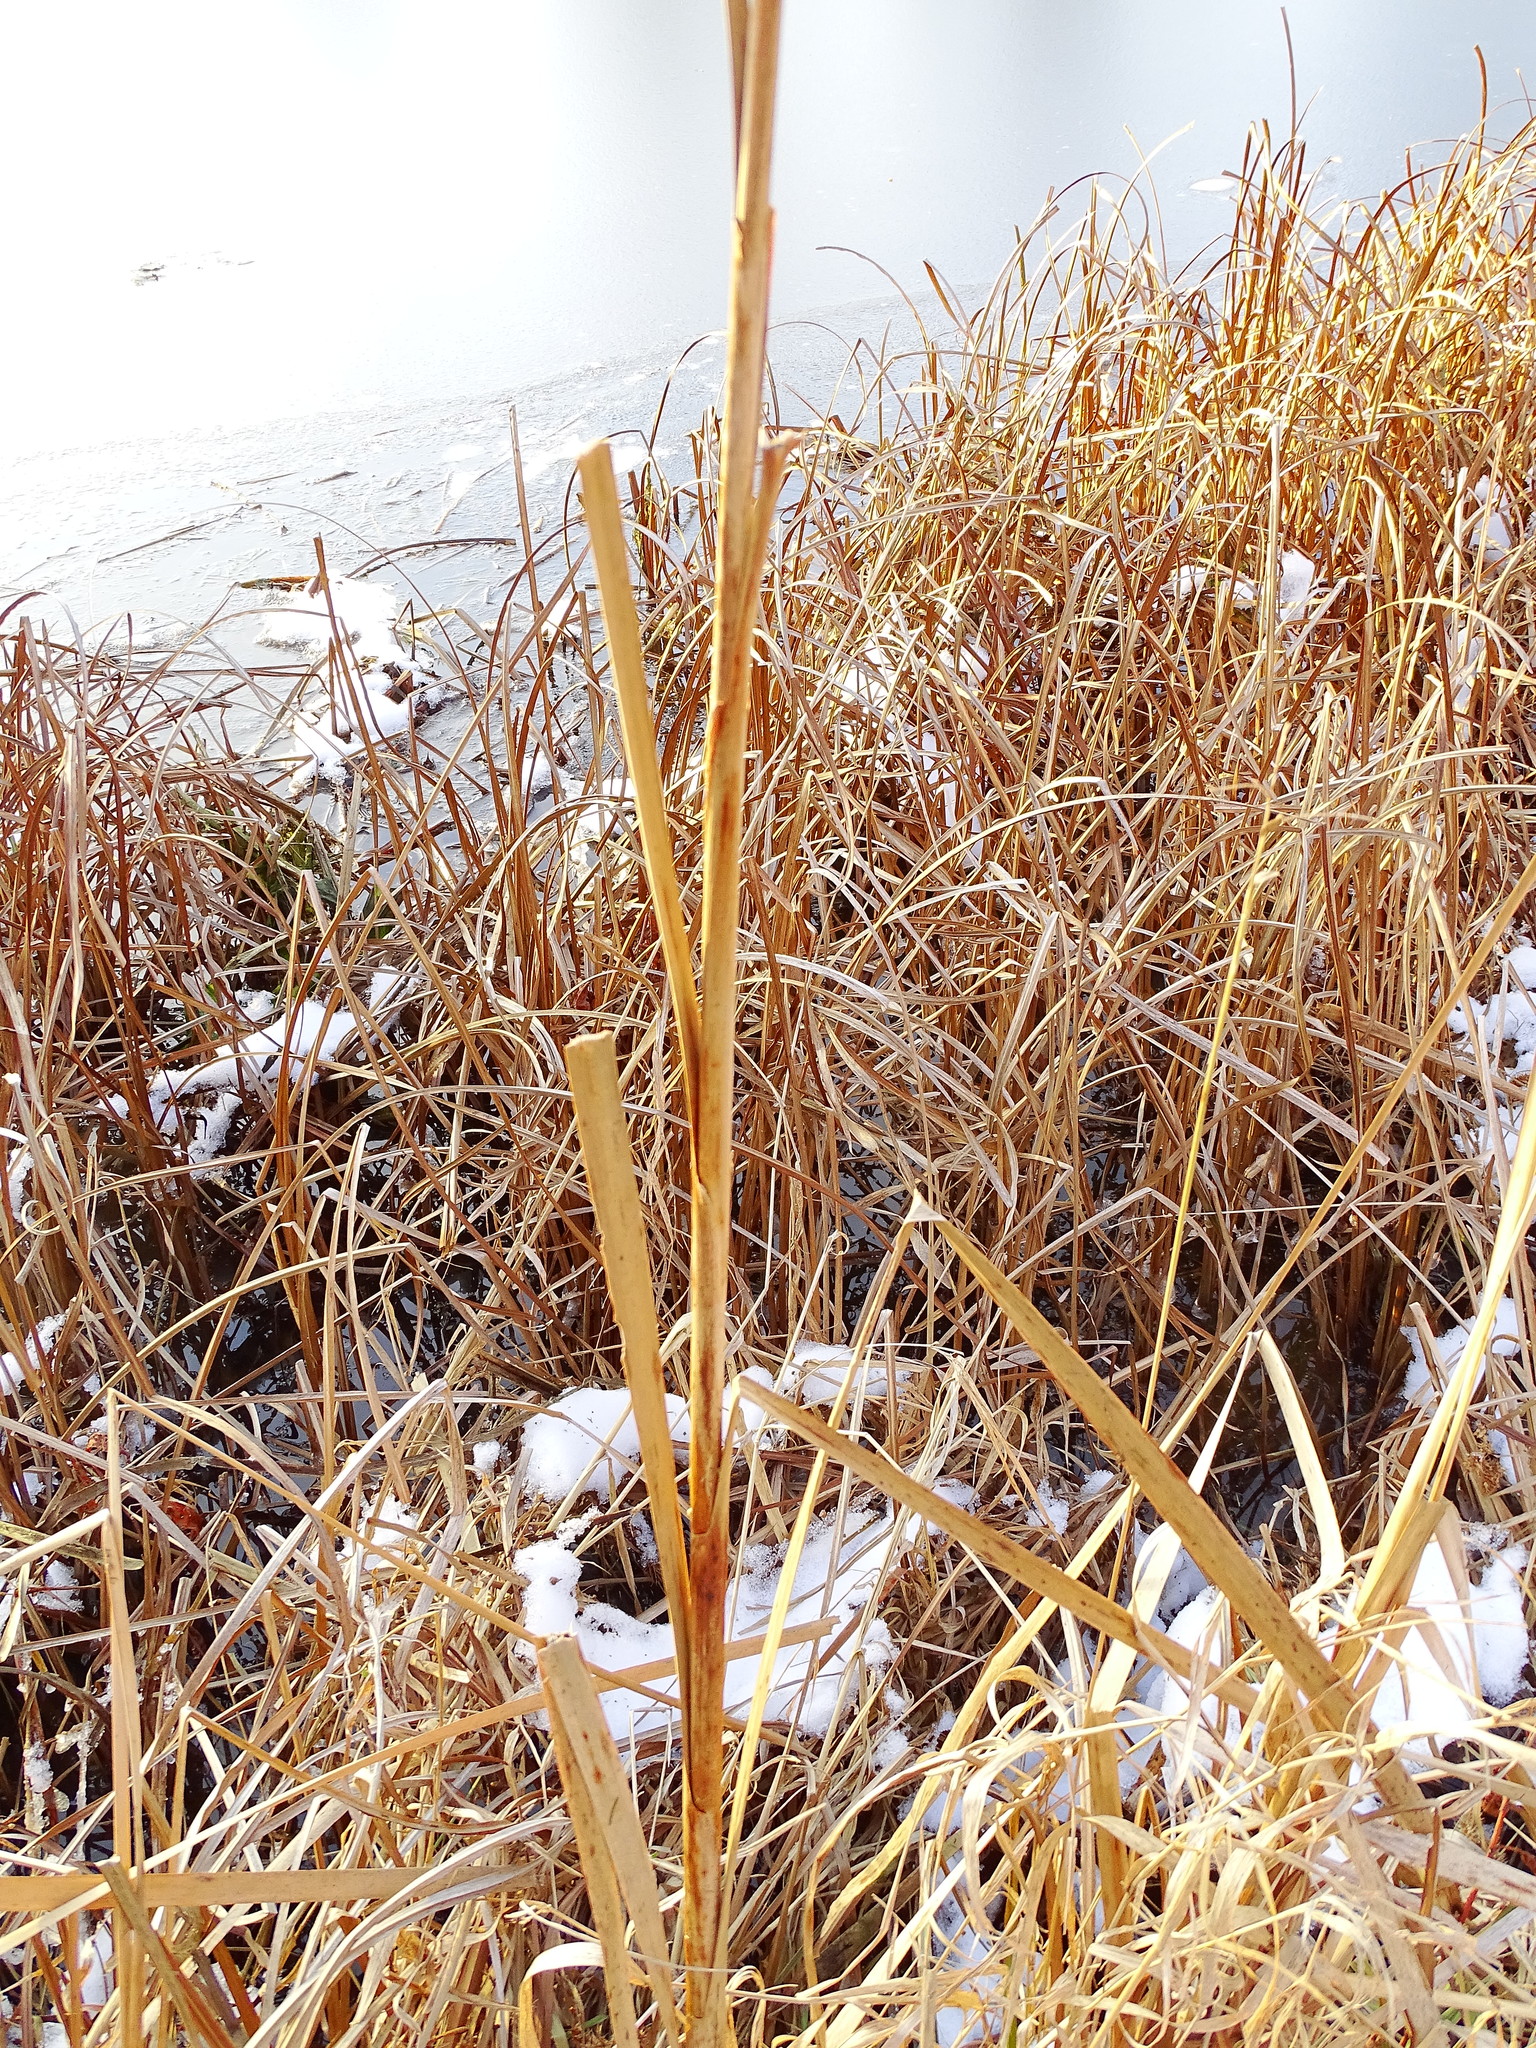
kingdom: Plantae
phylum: Tracheophyta
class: Liliopsida
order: Poales
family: Typhaceae
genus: Typha
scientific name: Typha glauca
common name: Blue cattail
